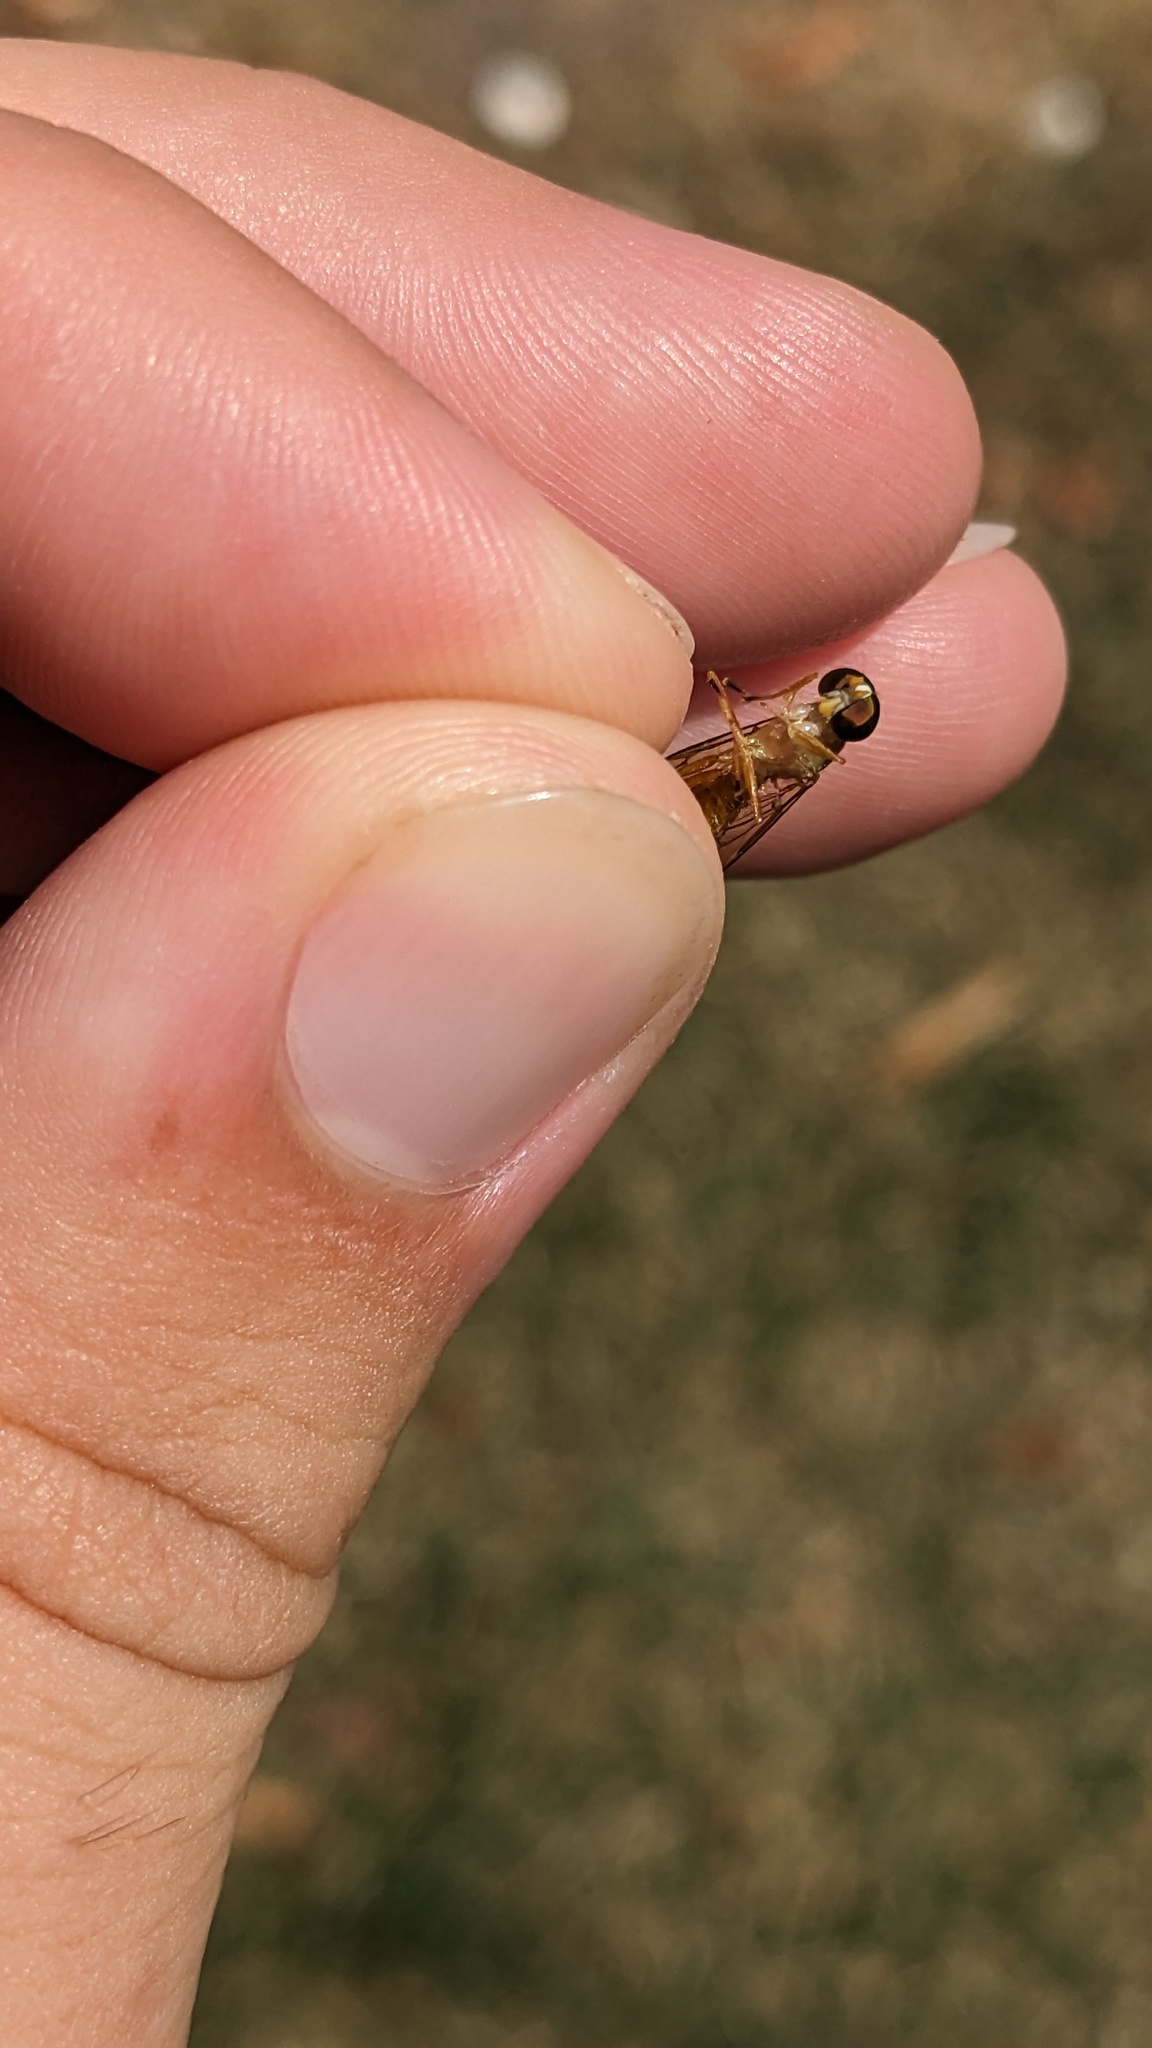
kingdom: Animalia
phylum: Arthropoda
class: Insecta
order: Diptera
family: Stratiomyidae
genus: Ptecticus
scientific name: Ptecticus trivittatus
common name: Compost fly
